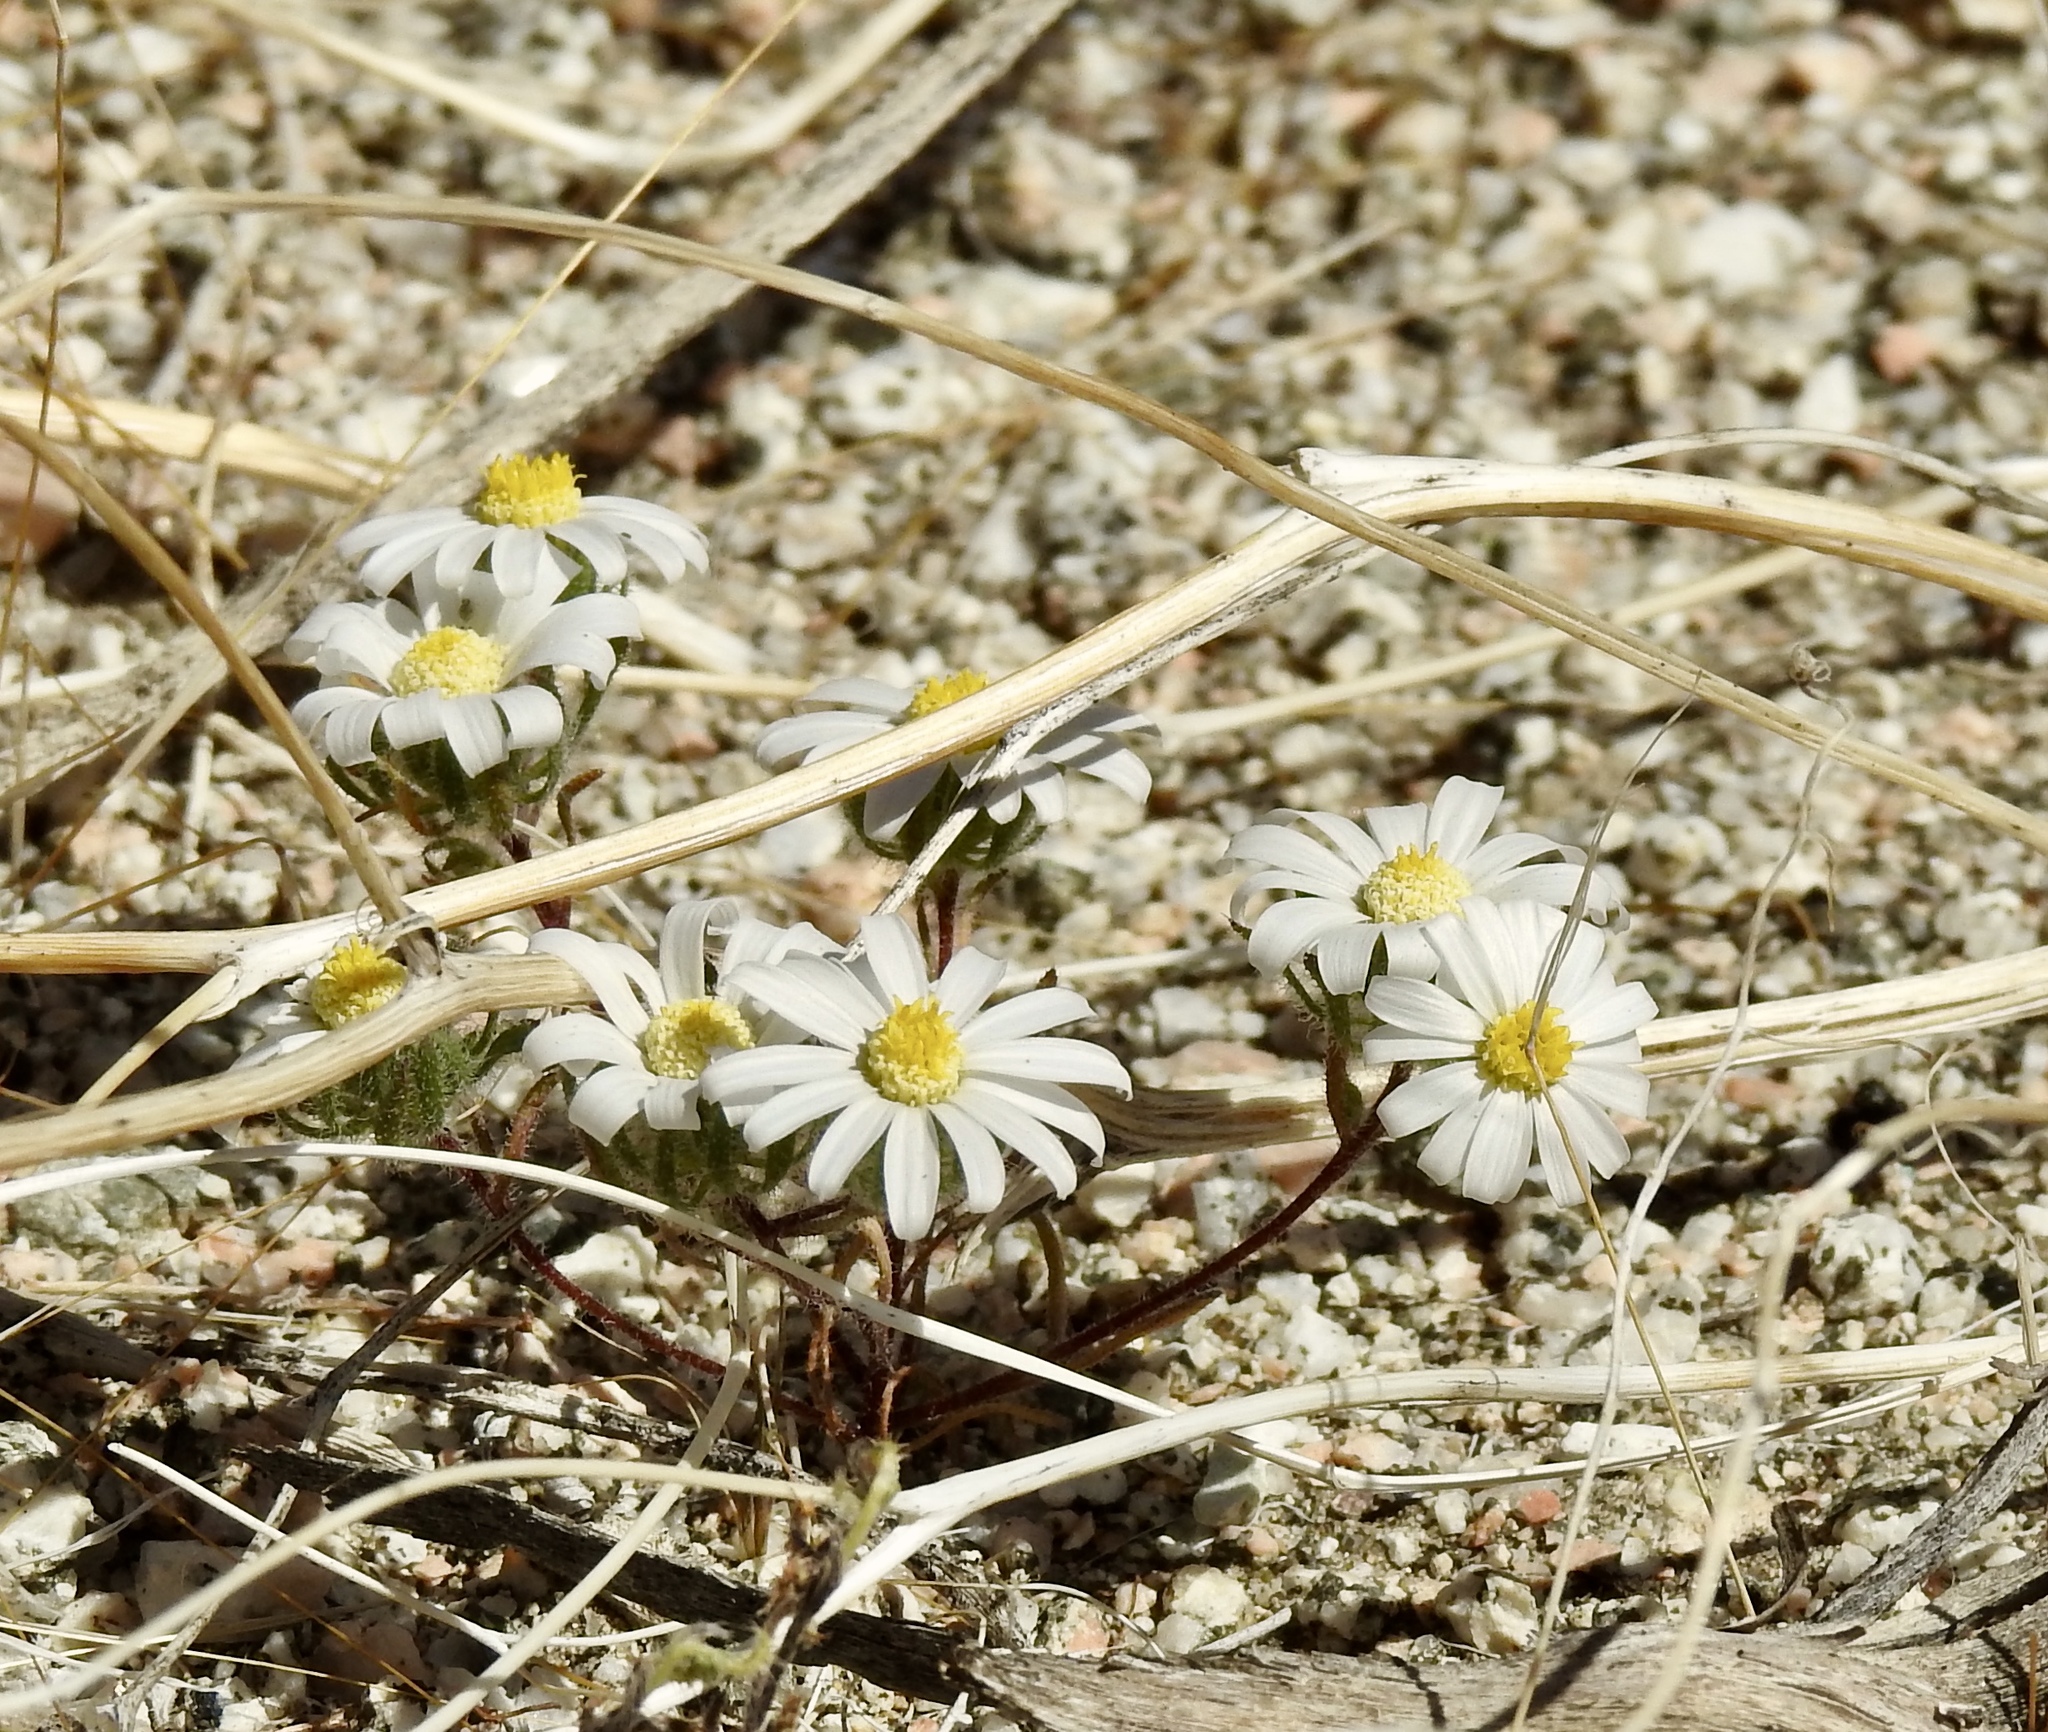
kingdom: Plantae
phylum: Tracheophyta
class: Magnoliopsida
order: Asterales
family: Asteraceae
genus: Monoptilon
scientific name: Monoptilon bellioides
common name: Bristly desertstar
